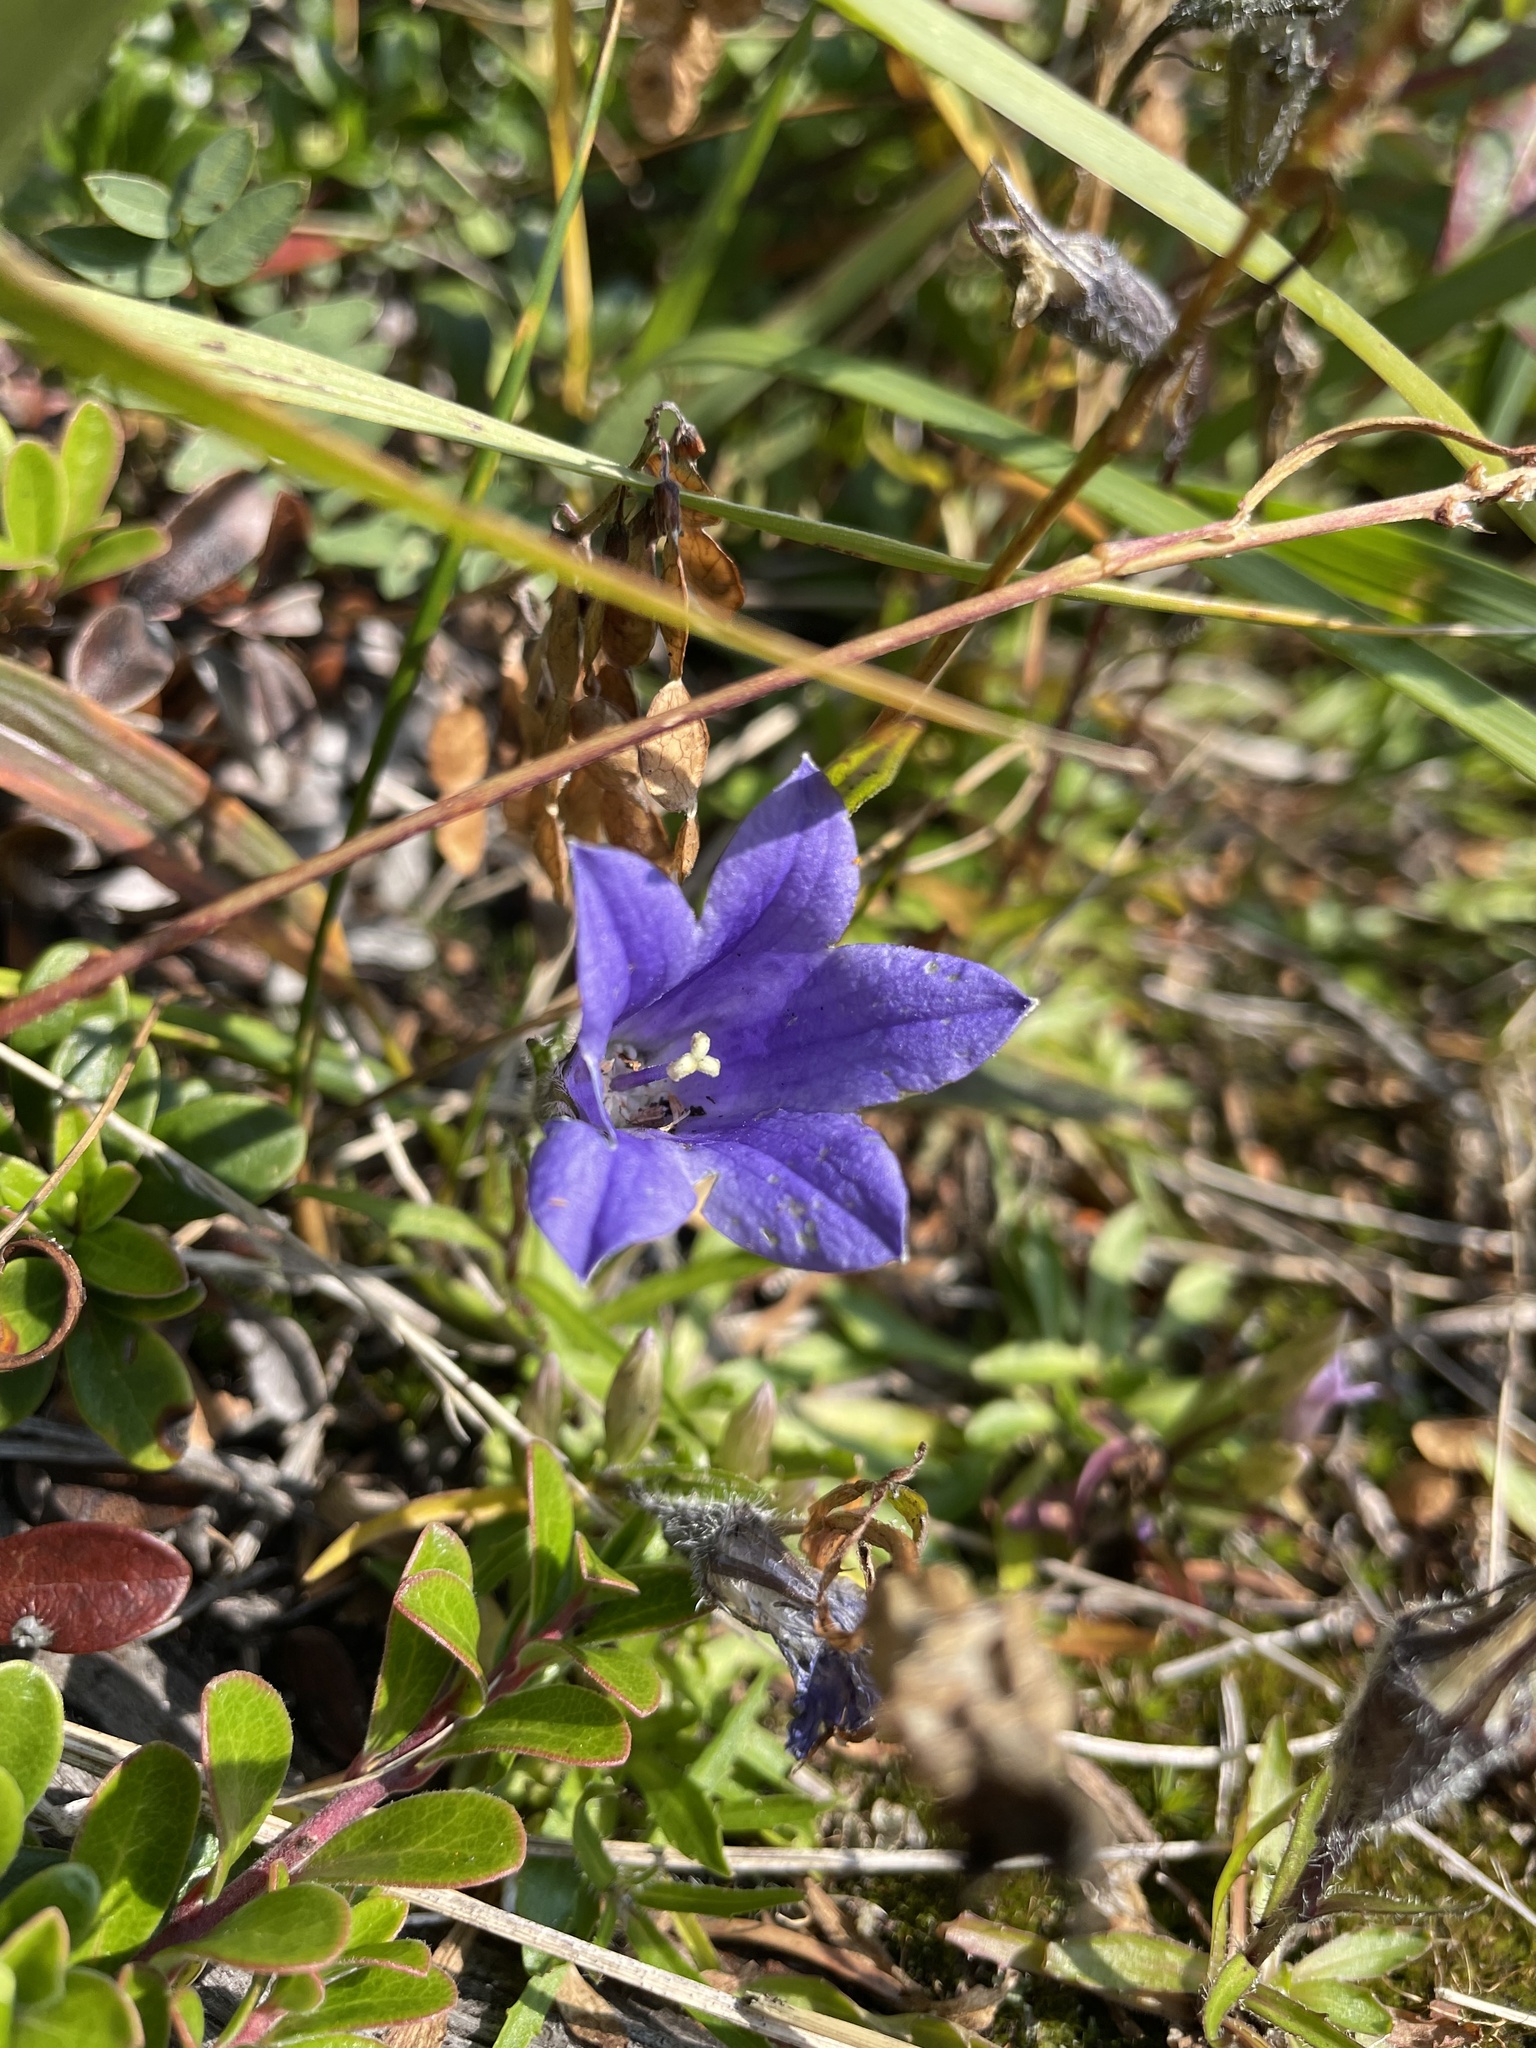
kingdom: Plantae
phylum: Tracheophyta
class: Magnoliopsida
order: Asterales
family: Campanulaceae
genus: Campanula
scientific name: Campanula lasiocarpa
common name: Mountain harebell
